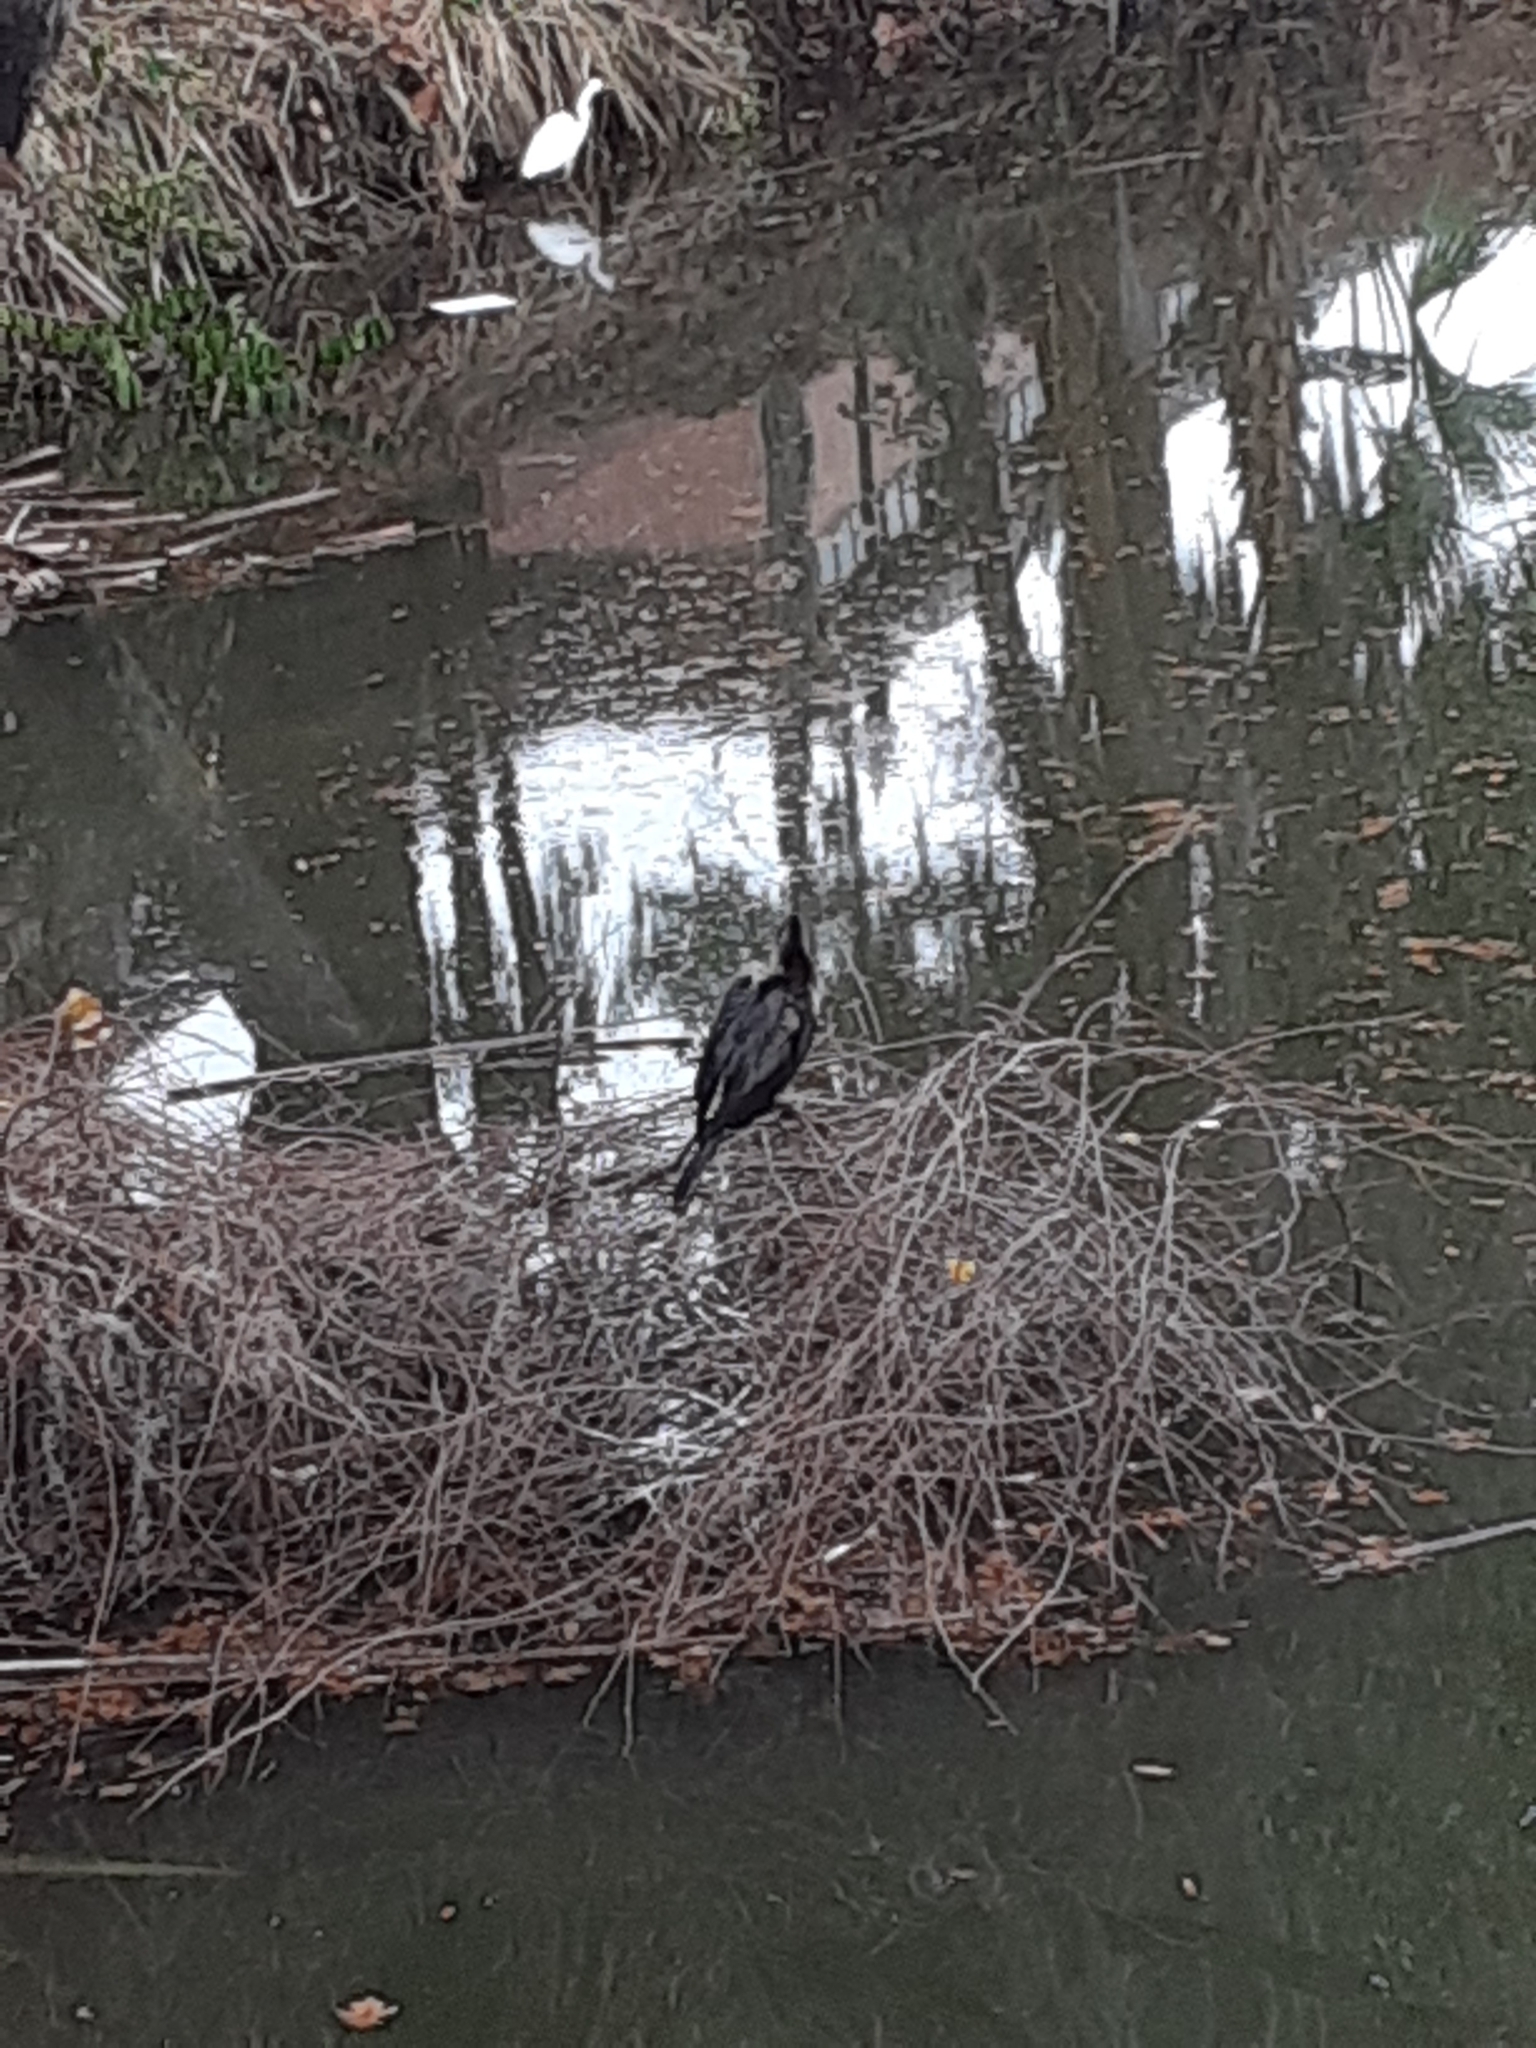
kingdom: Animalia
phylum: Chordata
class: Aves
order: Suliformes
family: Anhingidae
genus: Anhinga
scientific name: Anhinga anhinga
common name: Anhinga
